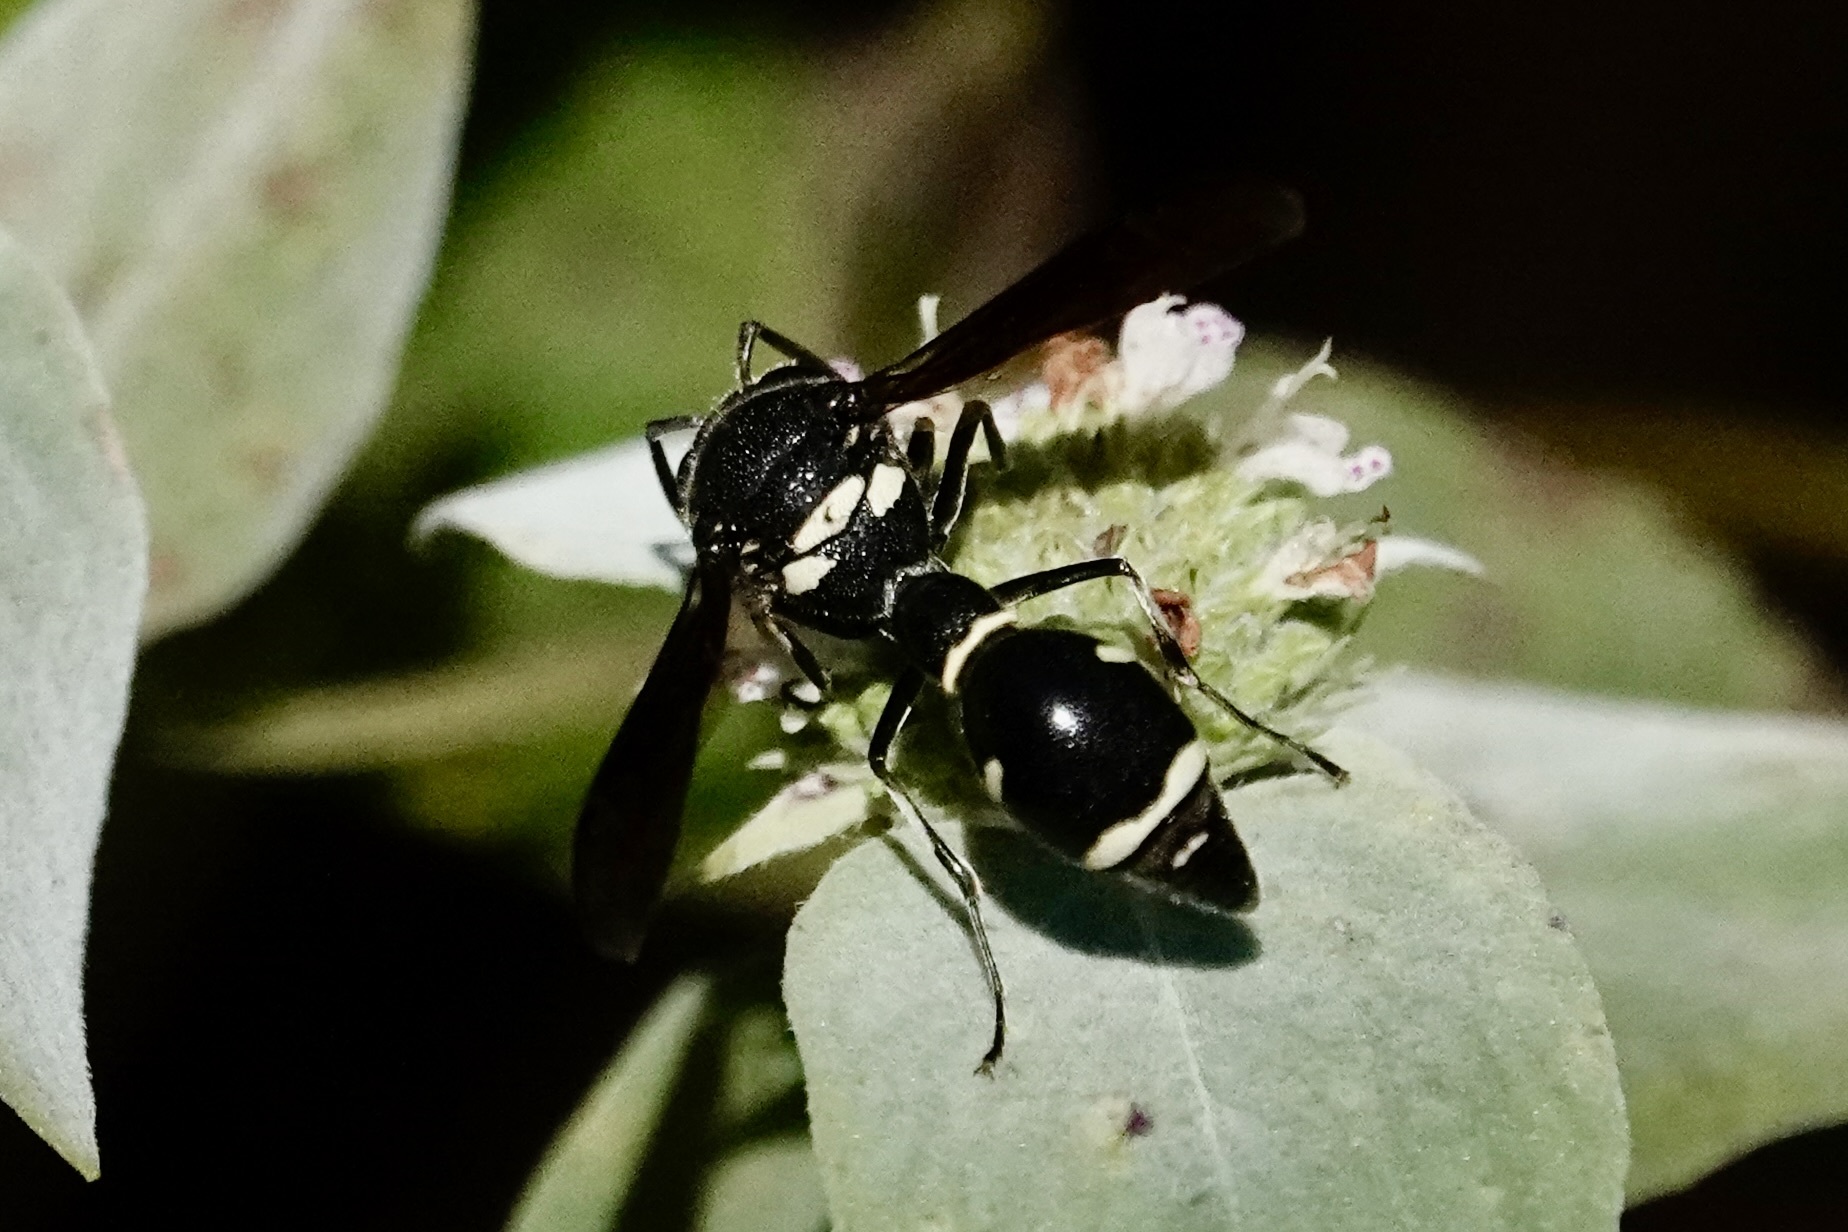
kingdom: Animalia
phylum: Arthropoda
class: Insecta
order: Hymenoptera
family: Vespidae
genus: Eumenes
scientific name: Eumenes fraternus
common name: Fraternal potter wasp
